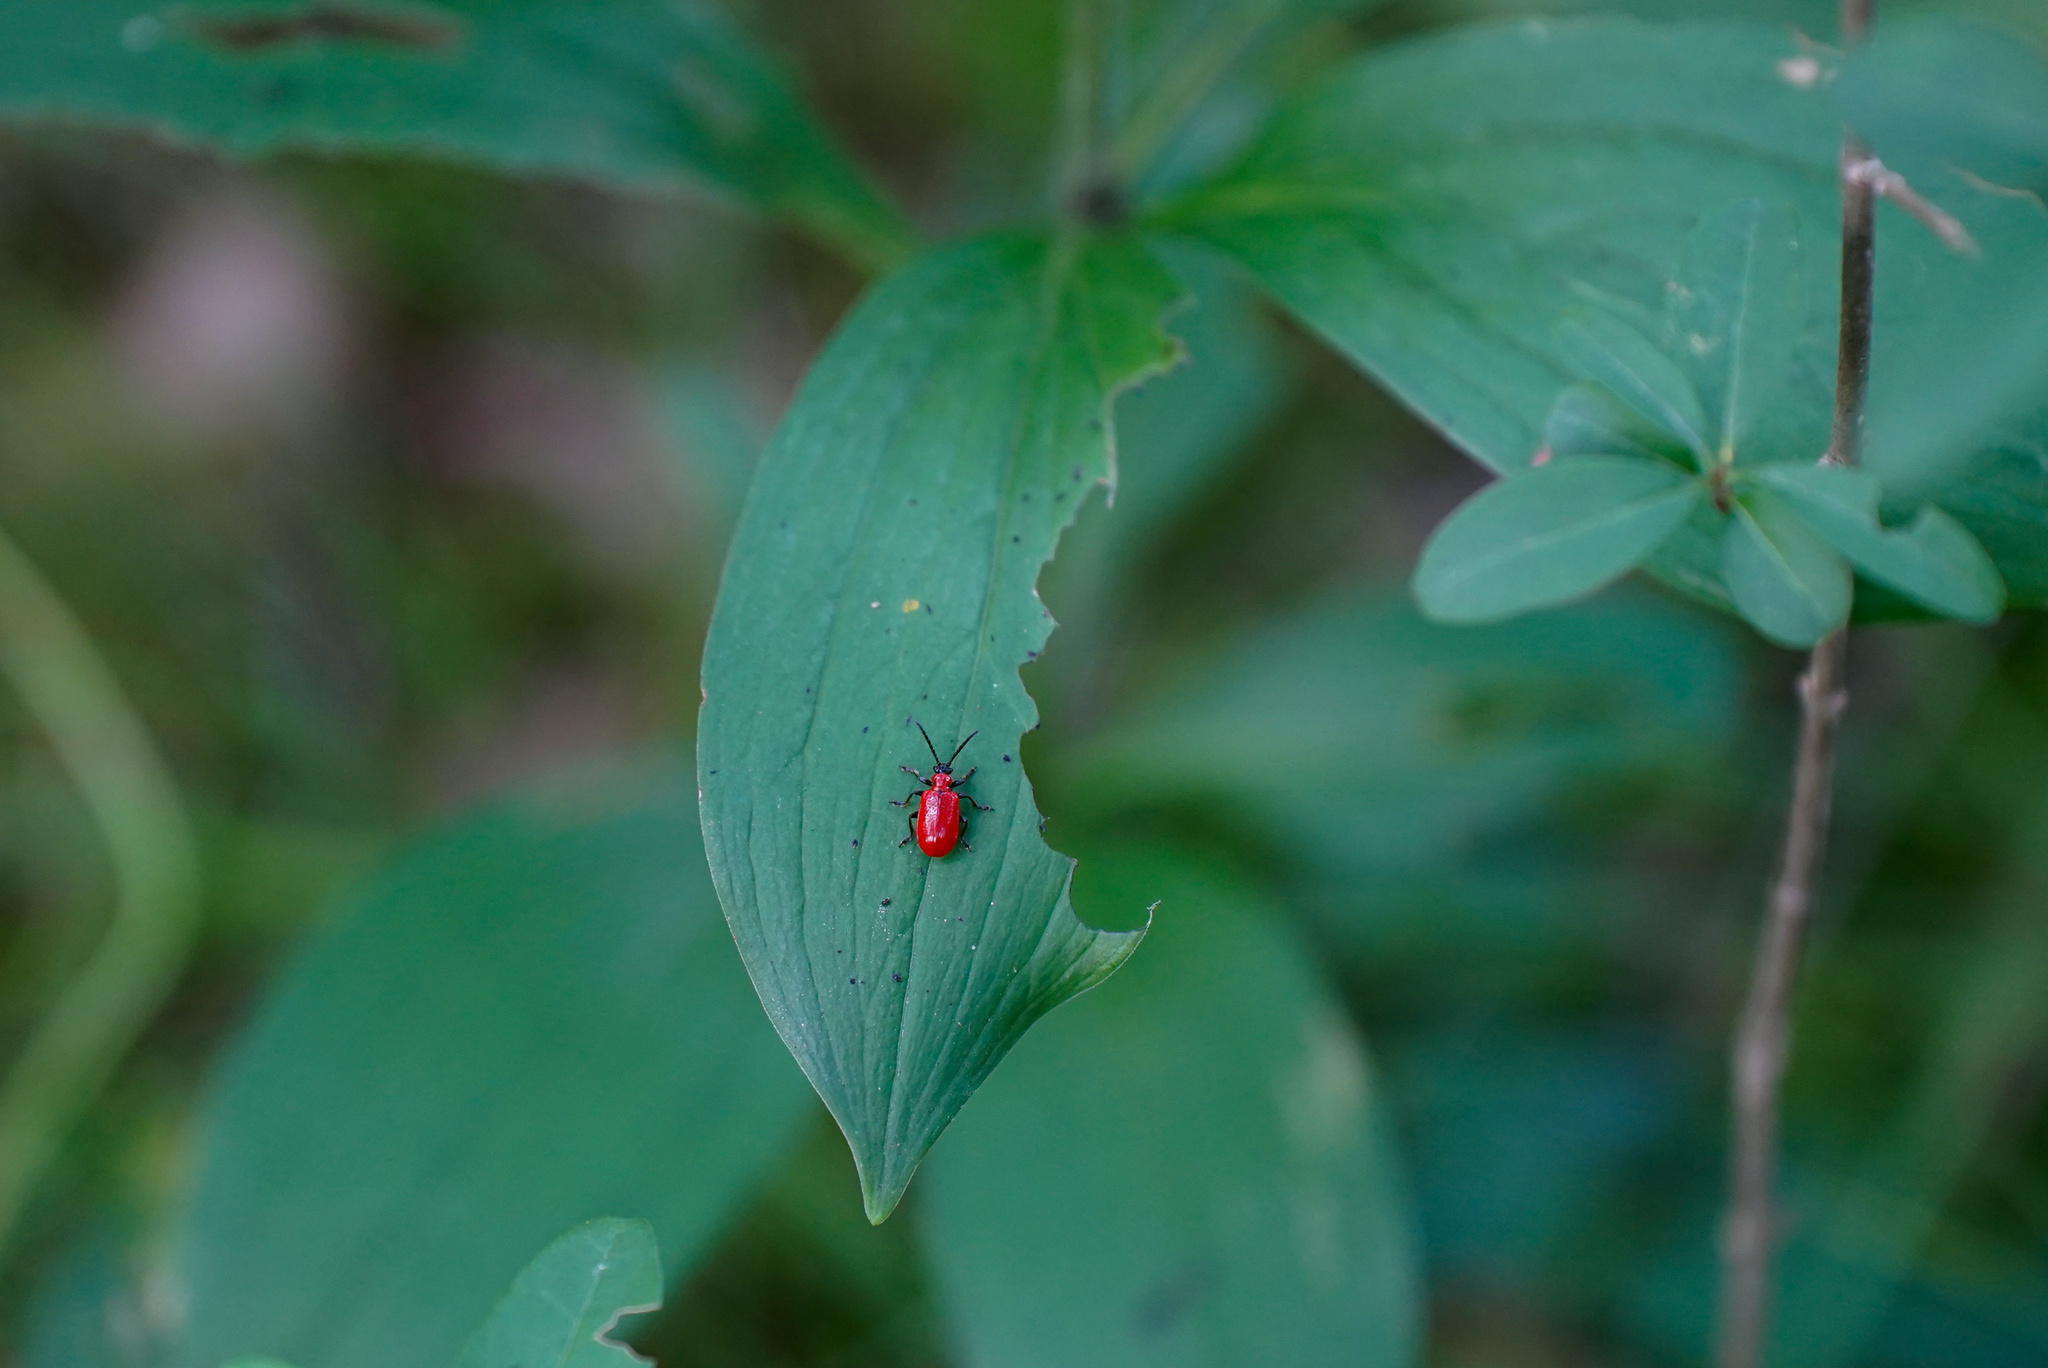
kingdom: Animalia
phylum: Arthropoda
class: Insecta
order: Coleoptera
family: Chrysomelidae
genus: Lilioceris
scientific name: Lilioceris lilii
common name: Lily beetle
